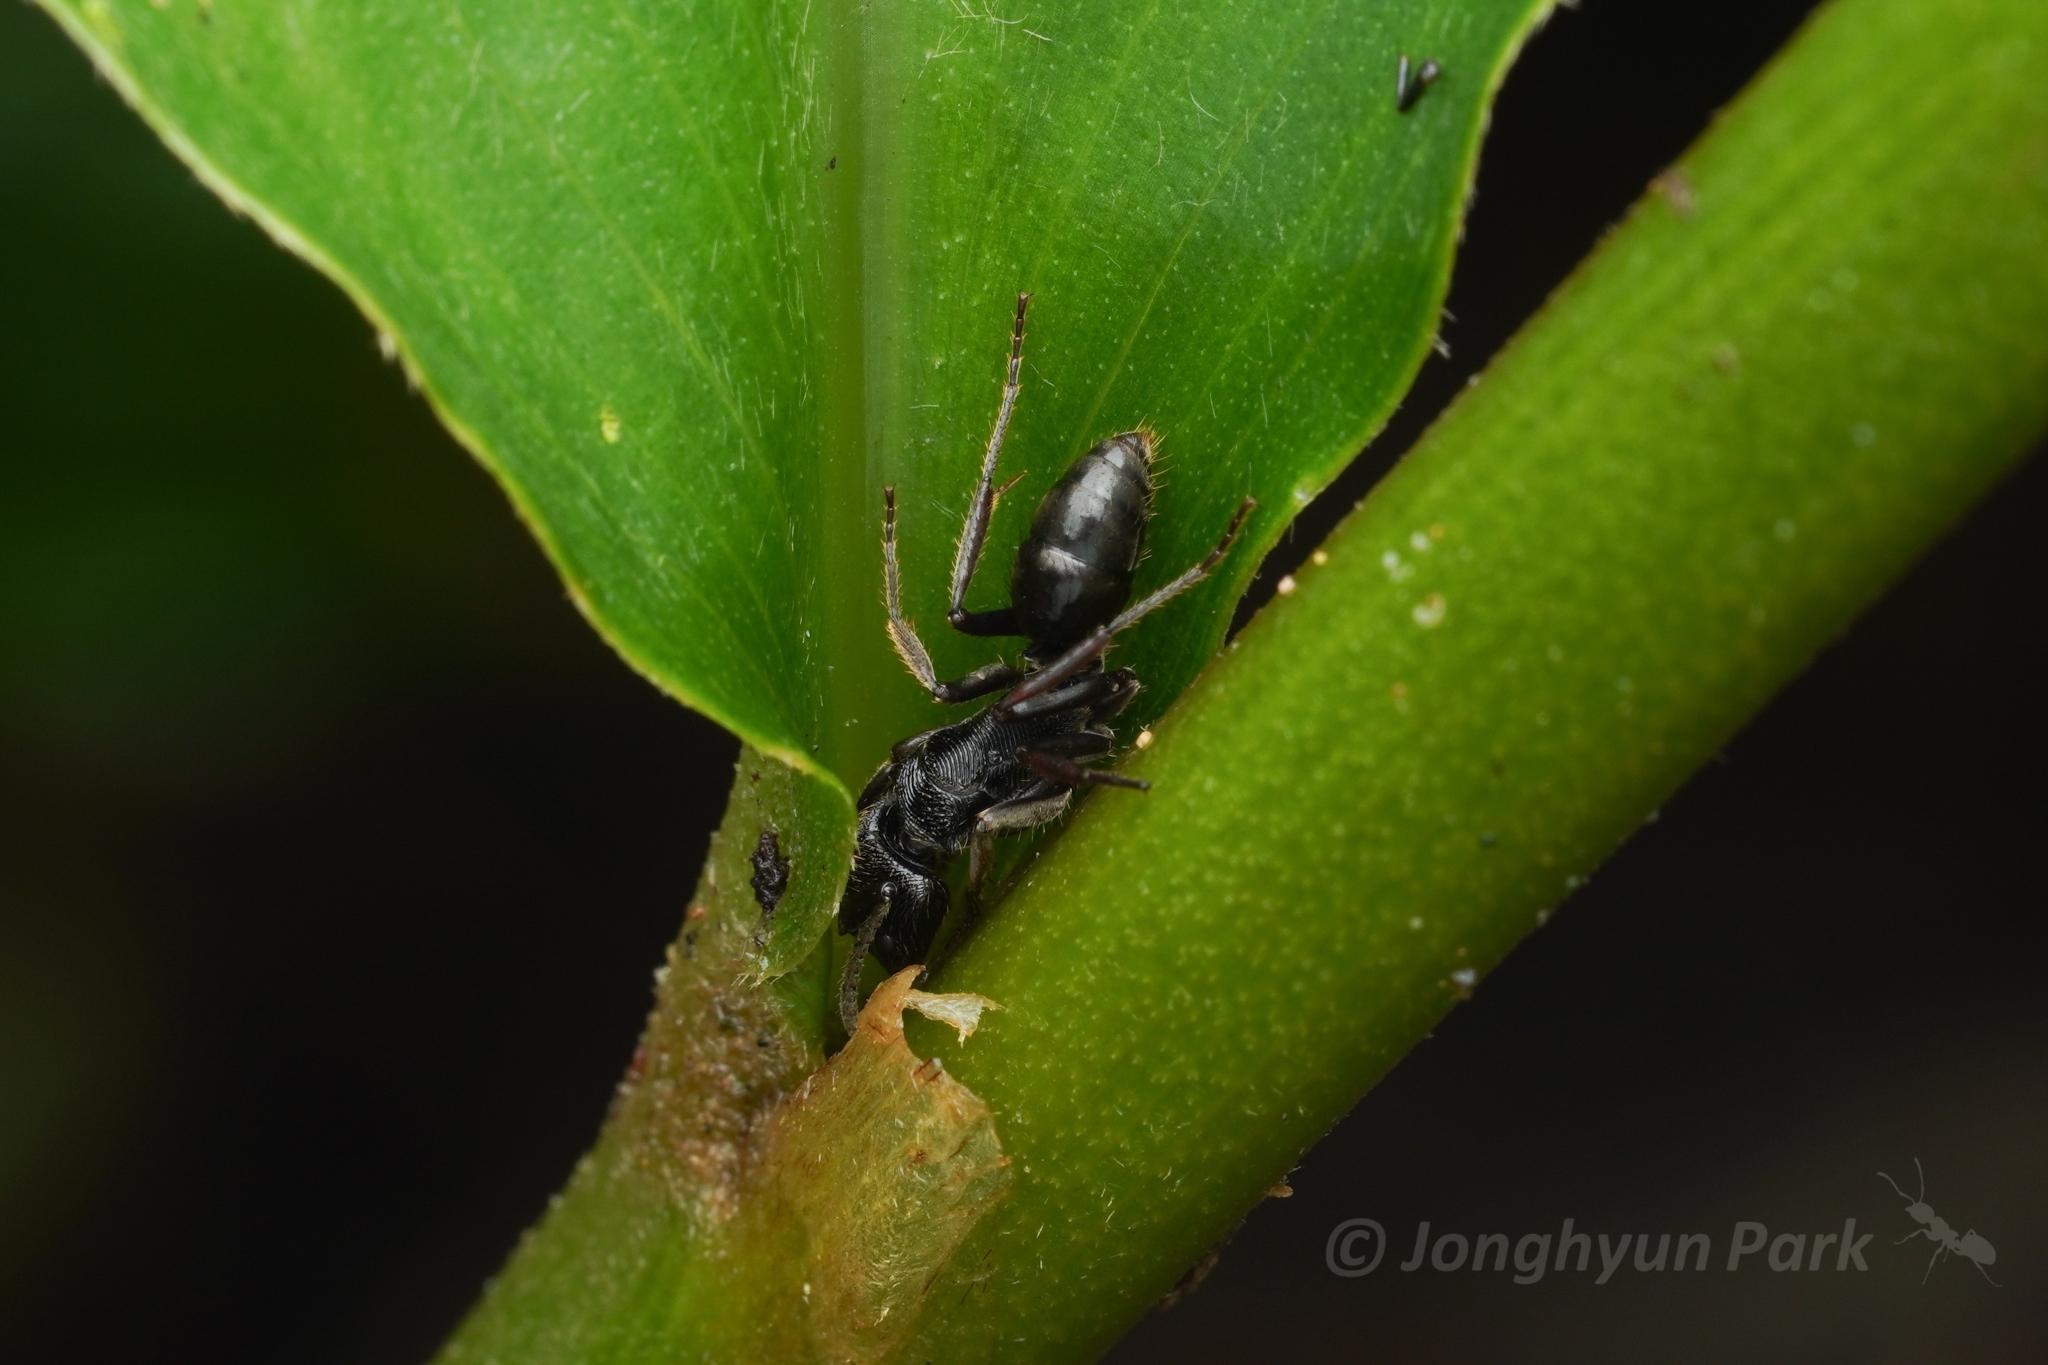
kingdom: Animalia
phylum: Arthropoda
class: Insecta
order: Hymenoptera
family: Formicidae
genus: Odontoponera
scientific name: Odontoponera denticulata
